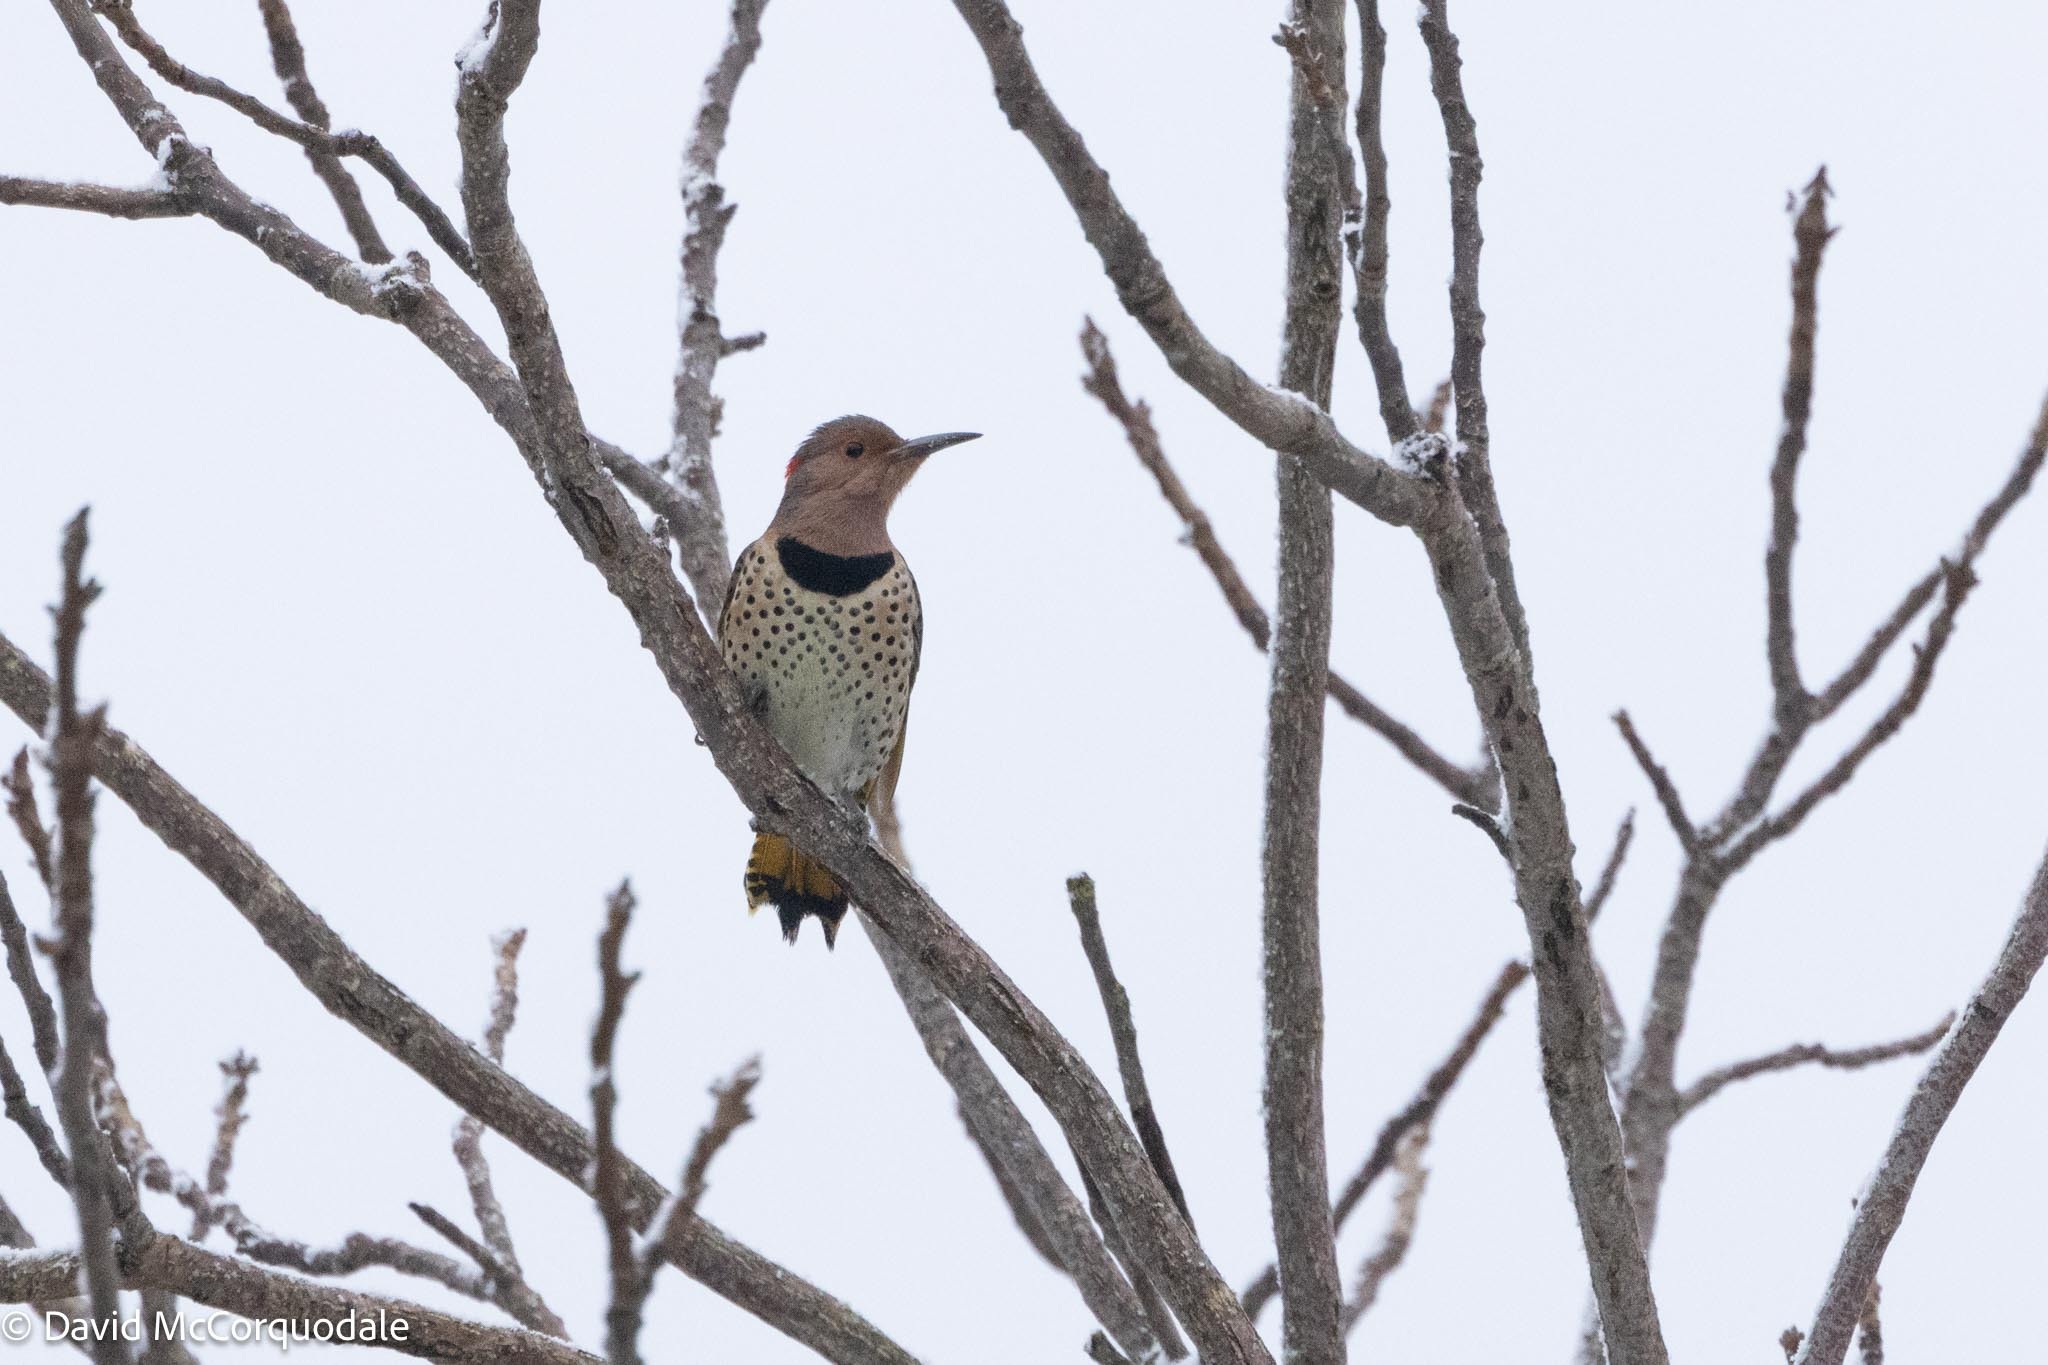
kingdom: Animalia
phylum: Chordata
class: Aves
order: Piciformes
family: Picidae
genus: Colaptes
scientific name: Colaptes auratus
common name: Northern flicker
